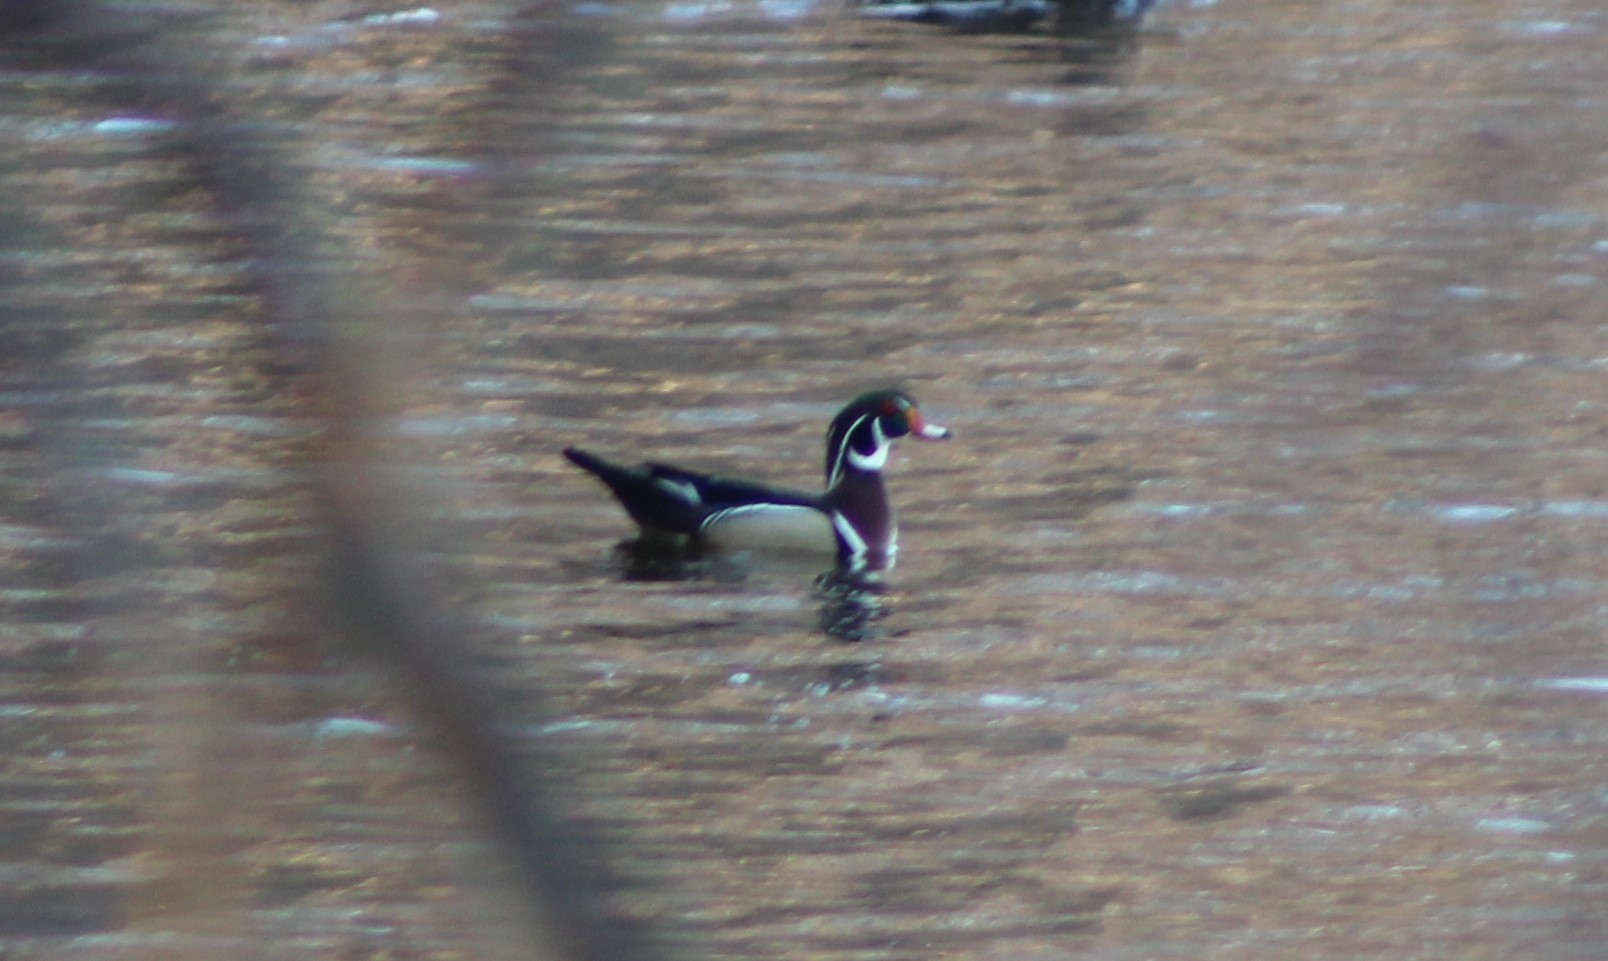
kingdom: Animalia
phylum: Chordata
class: Aves
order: Anseriformes
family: Anatidae
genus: Aix
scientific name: Aix sponsa
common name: Wood duck
